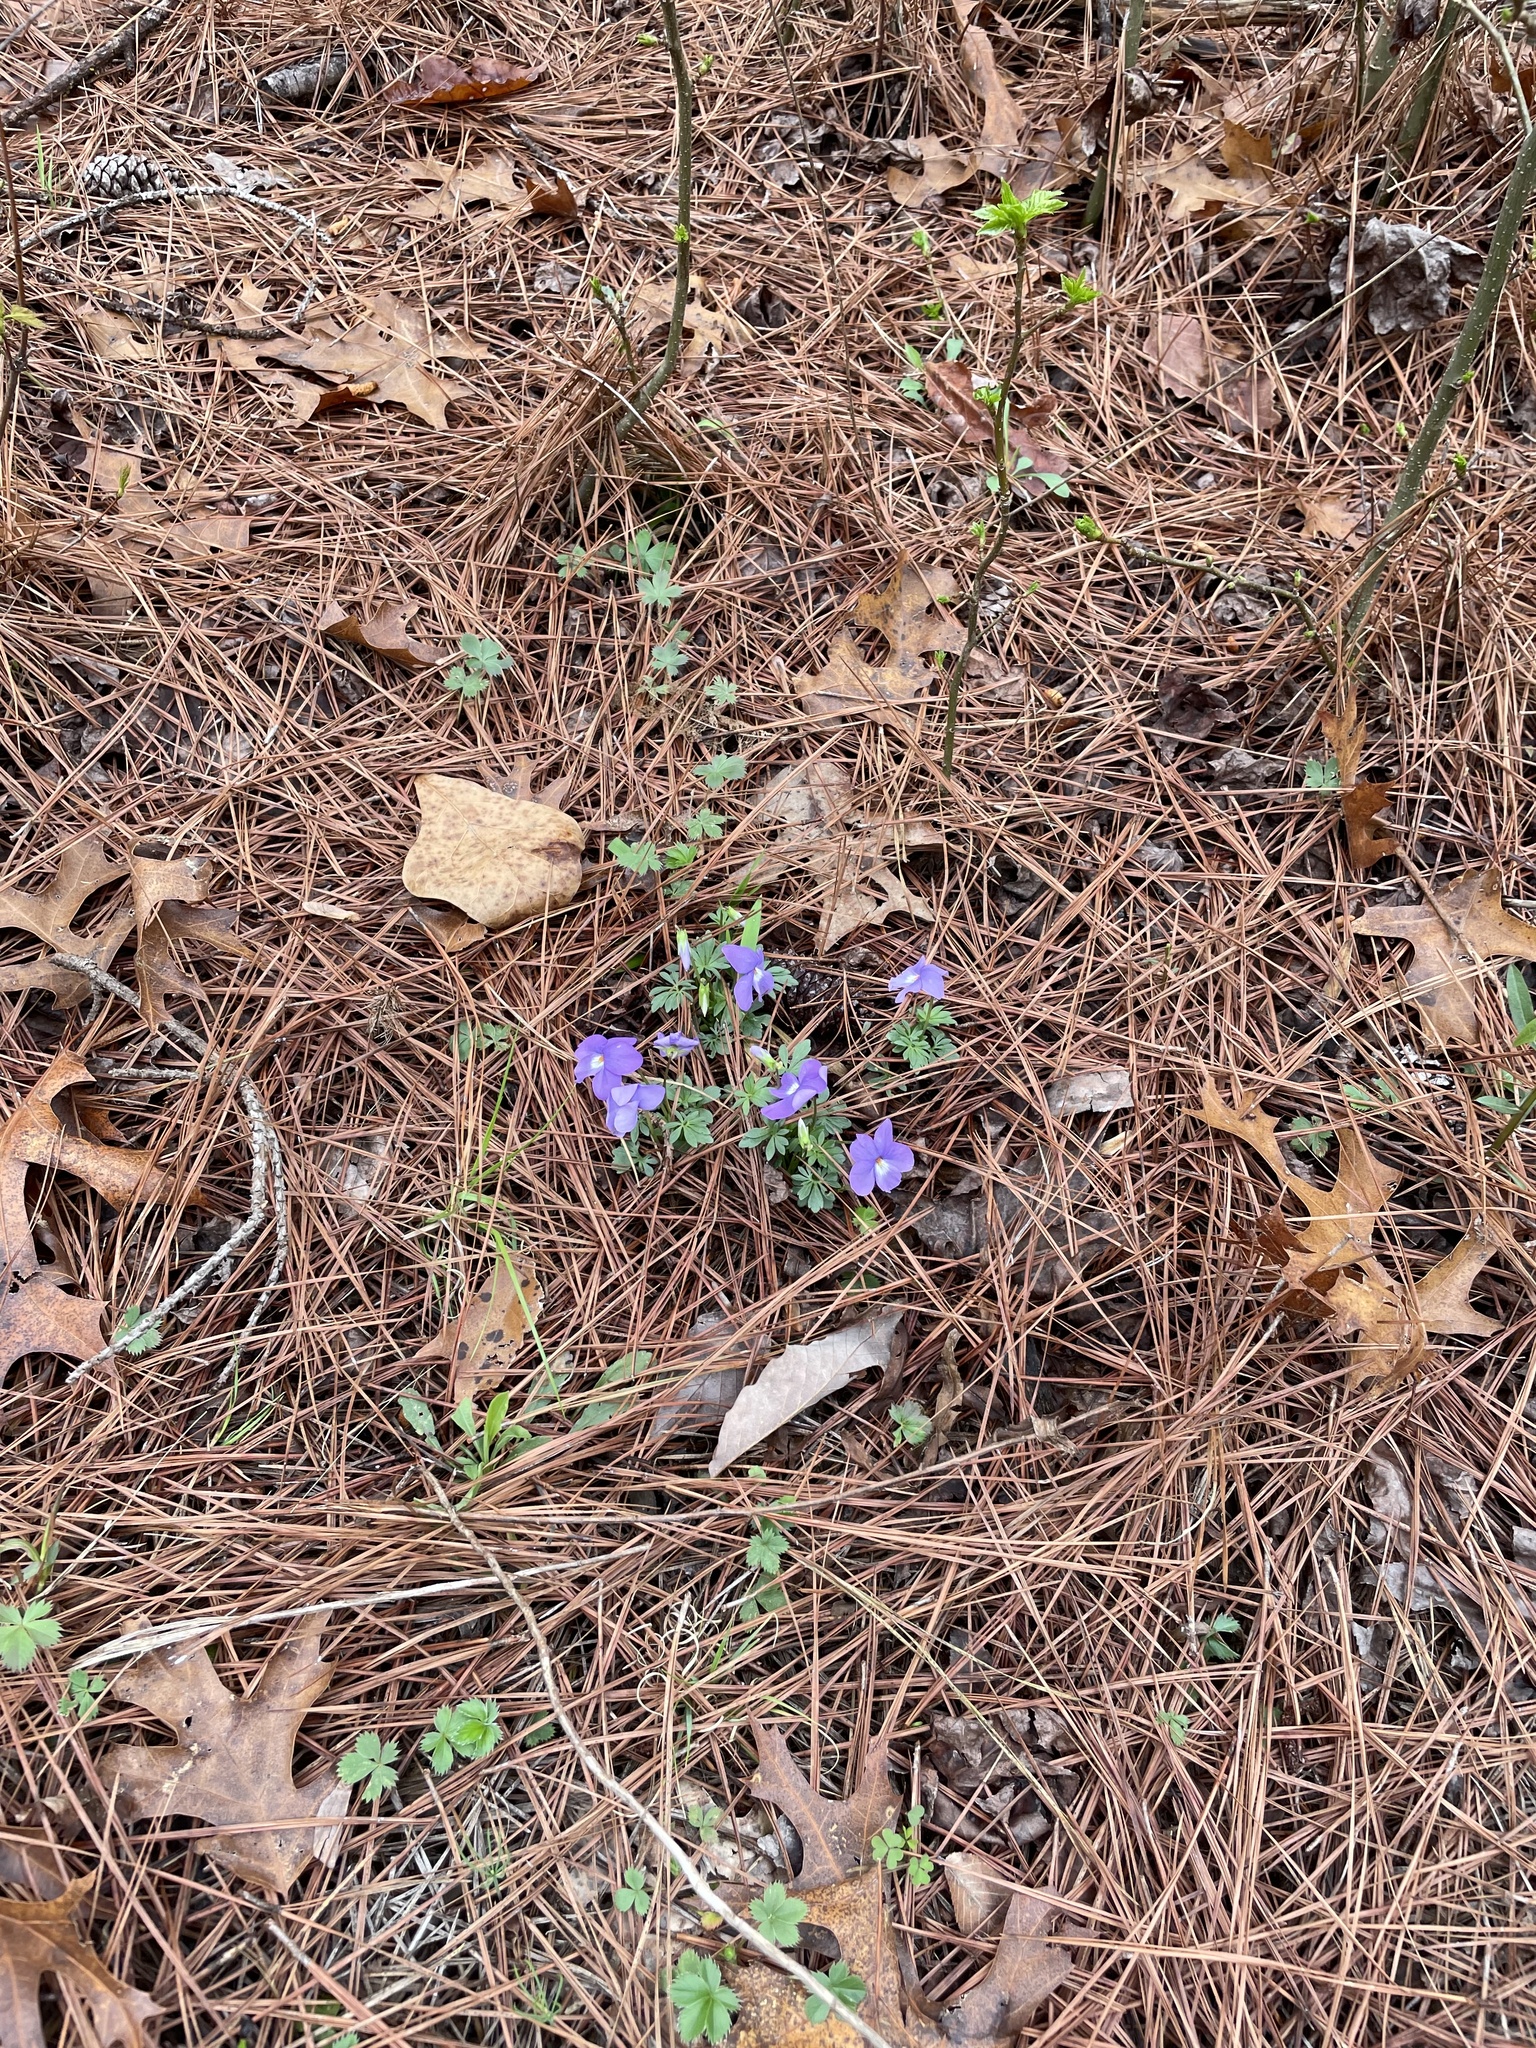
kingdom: Plantae
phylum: Tracheophyta
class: Magnoliopsida
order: Malpighiales
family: Violaceae
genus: Viola
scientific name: Viola pedata
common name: Pansy violet
